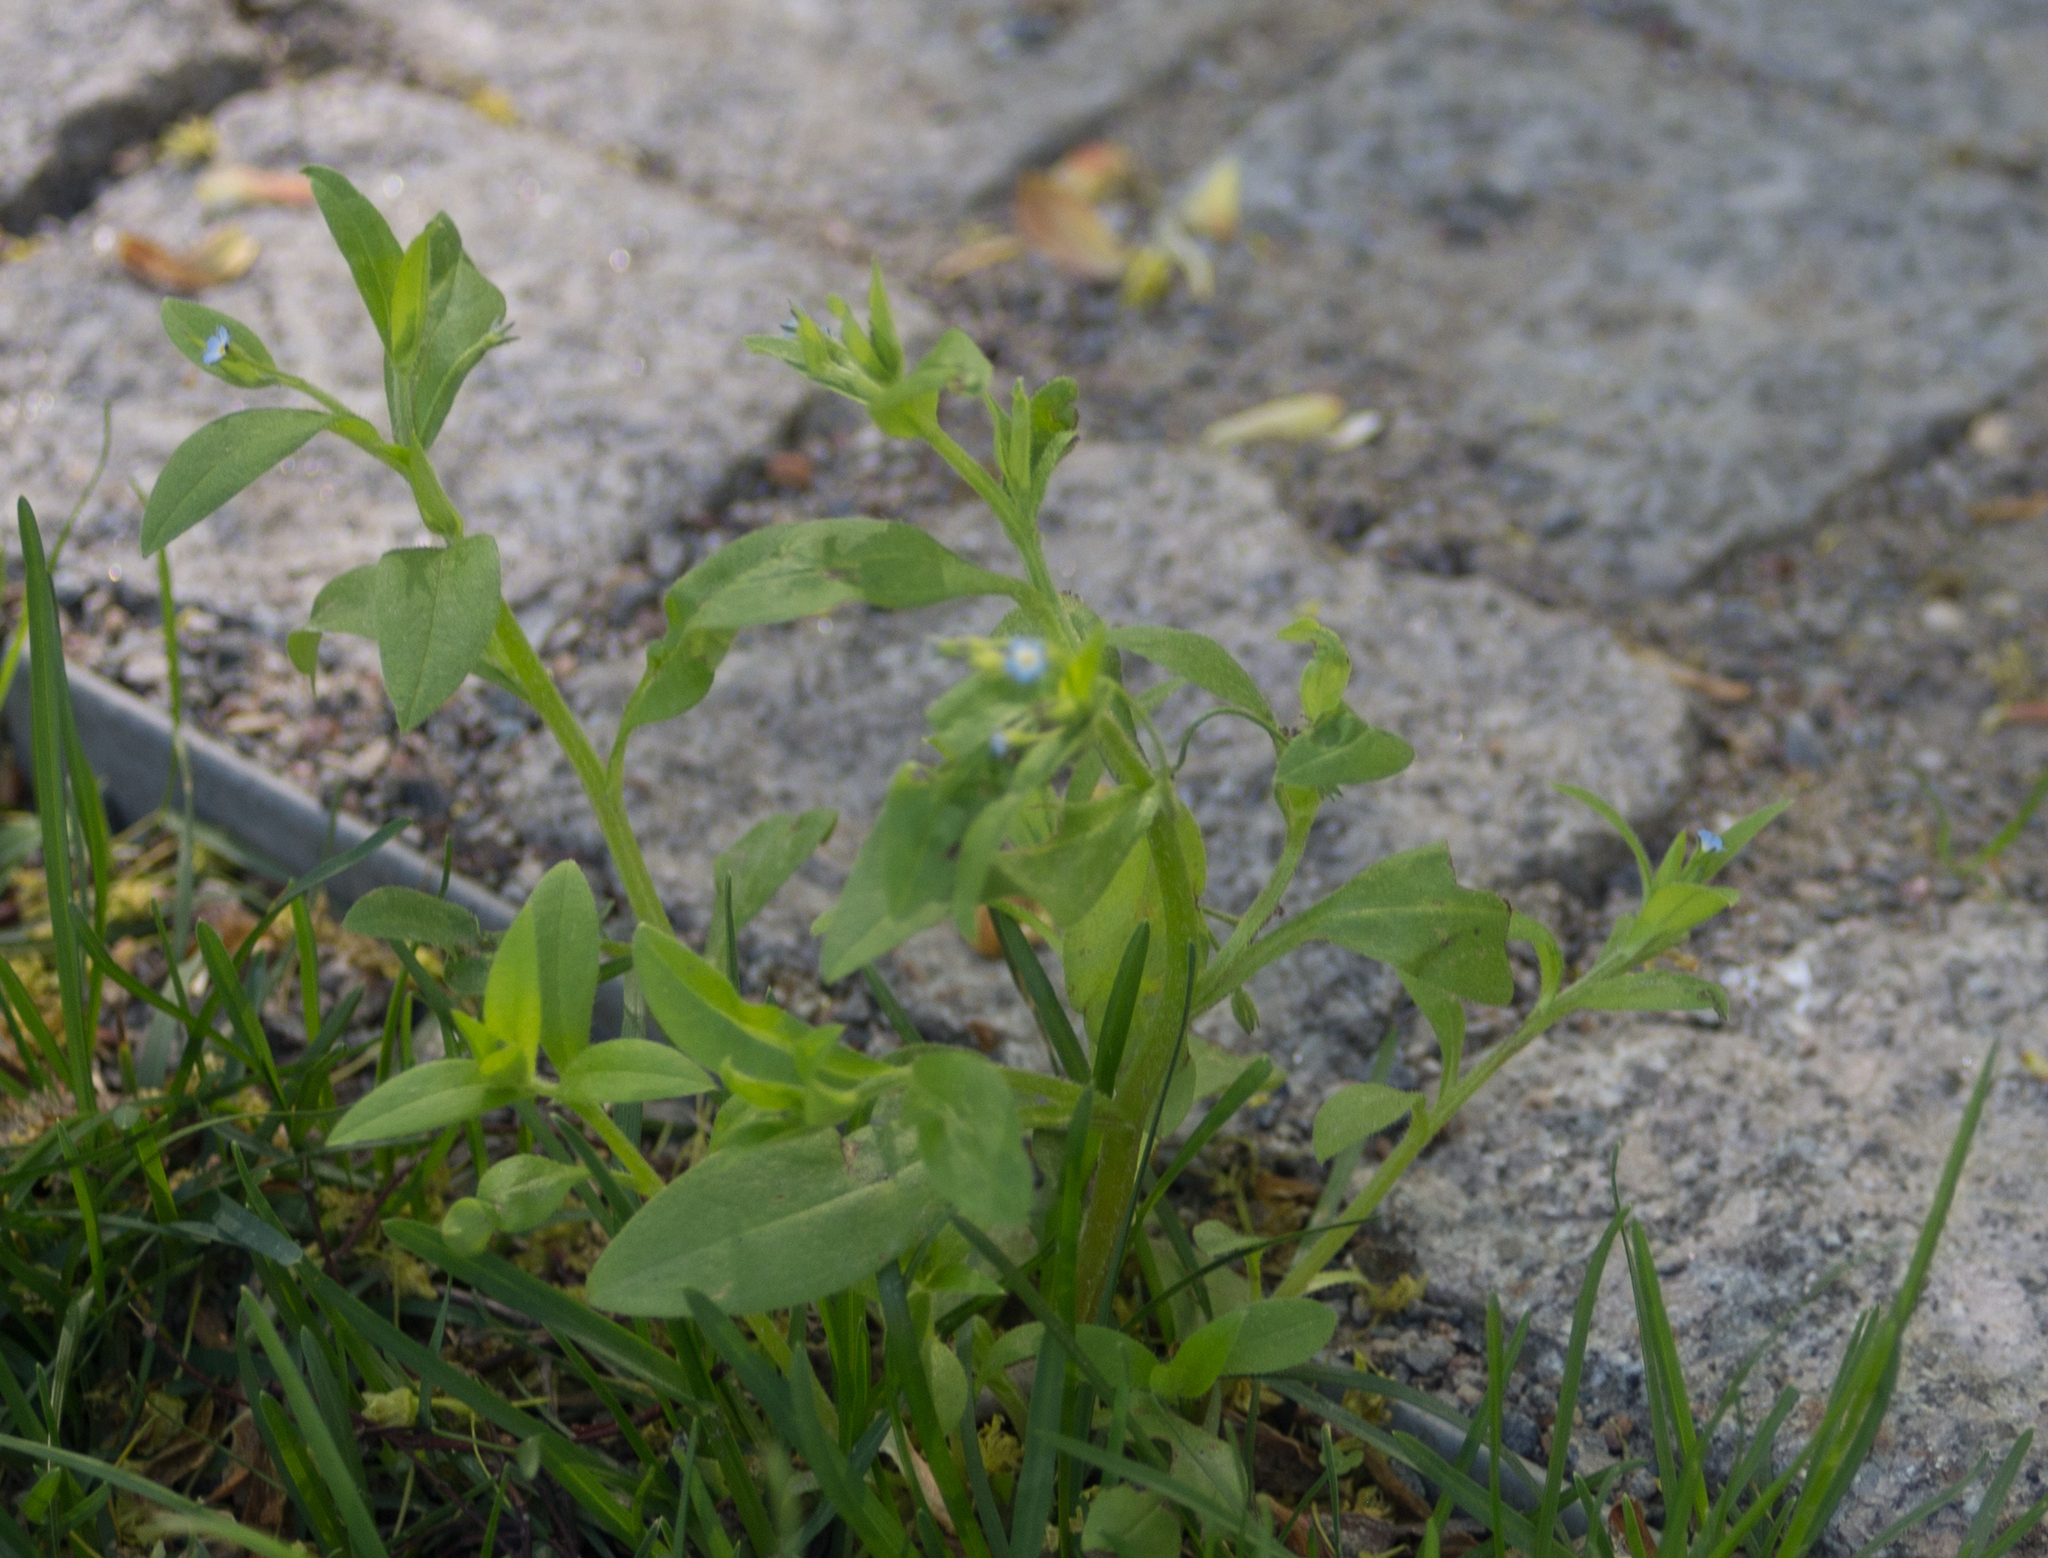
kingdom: Plantae
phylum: Tracheophyta
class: Magnoliopsida
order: Boraginales
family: Boraginaceae
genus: Myosotis
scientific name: Myosotis sparsiflora
